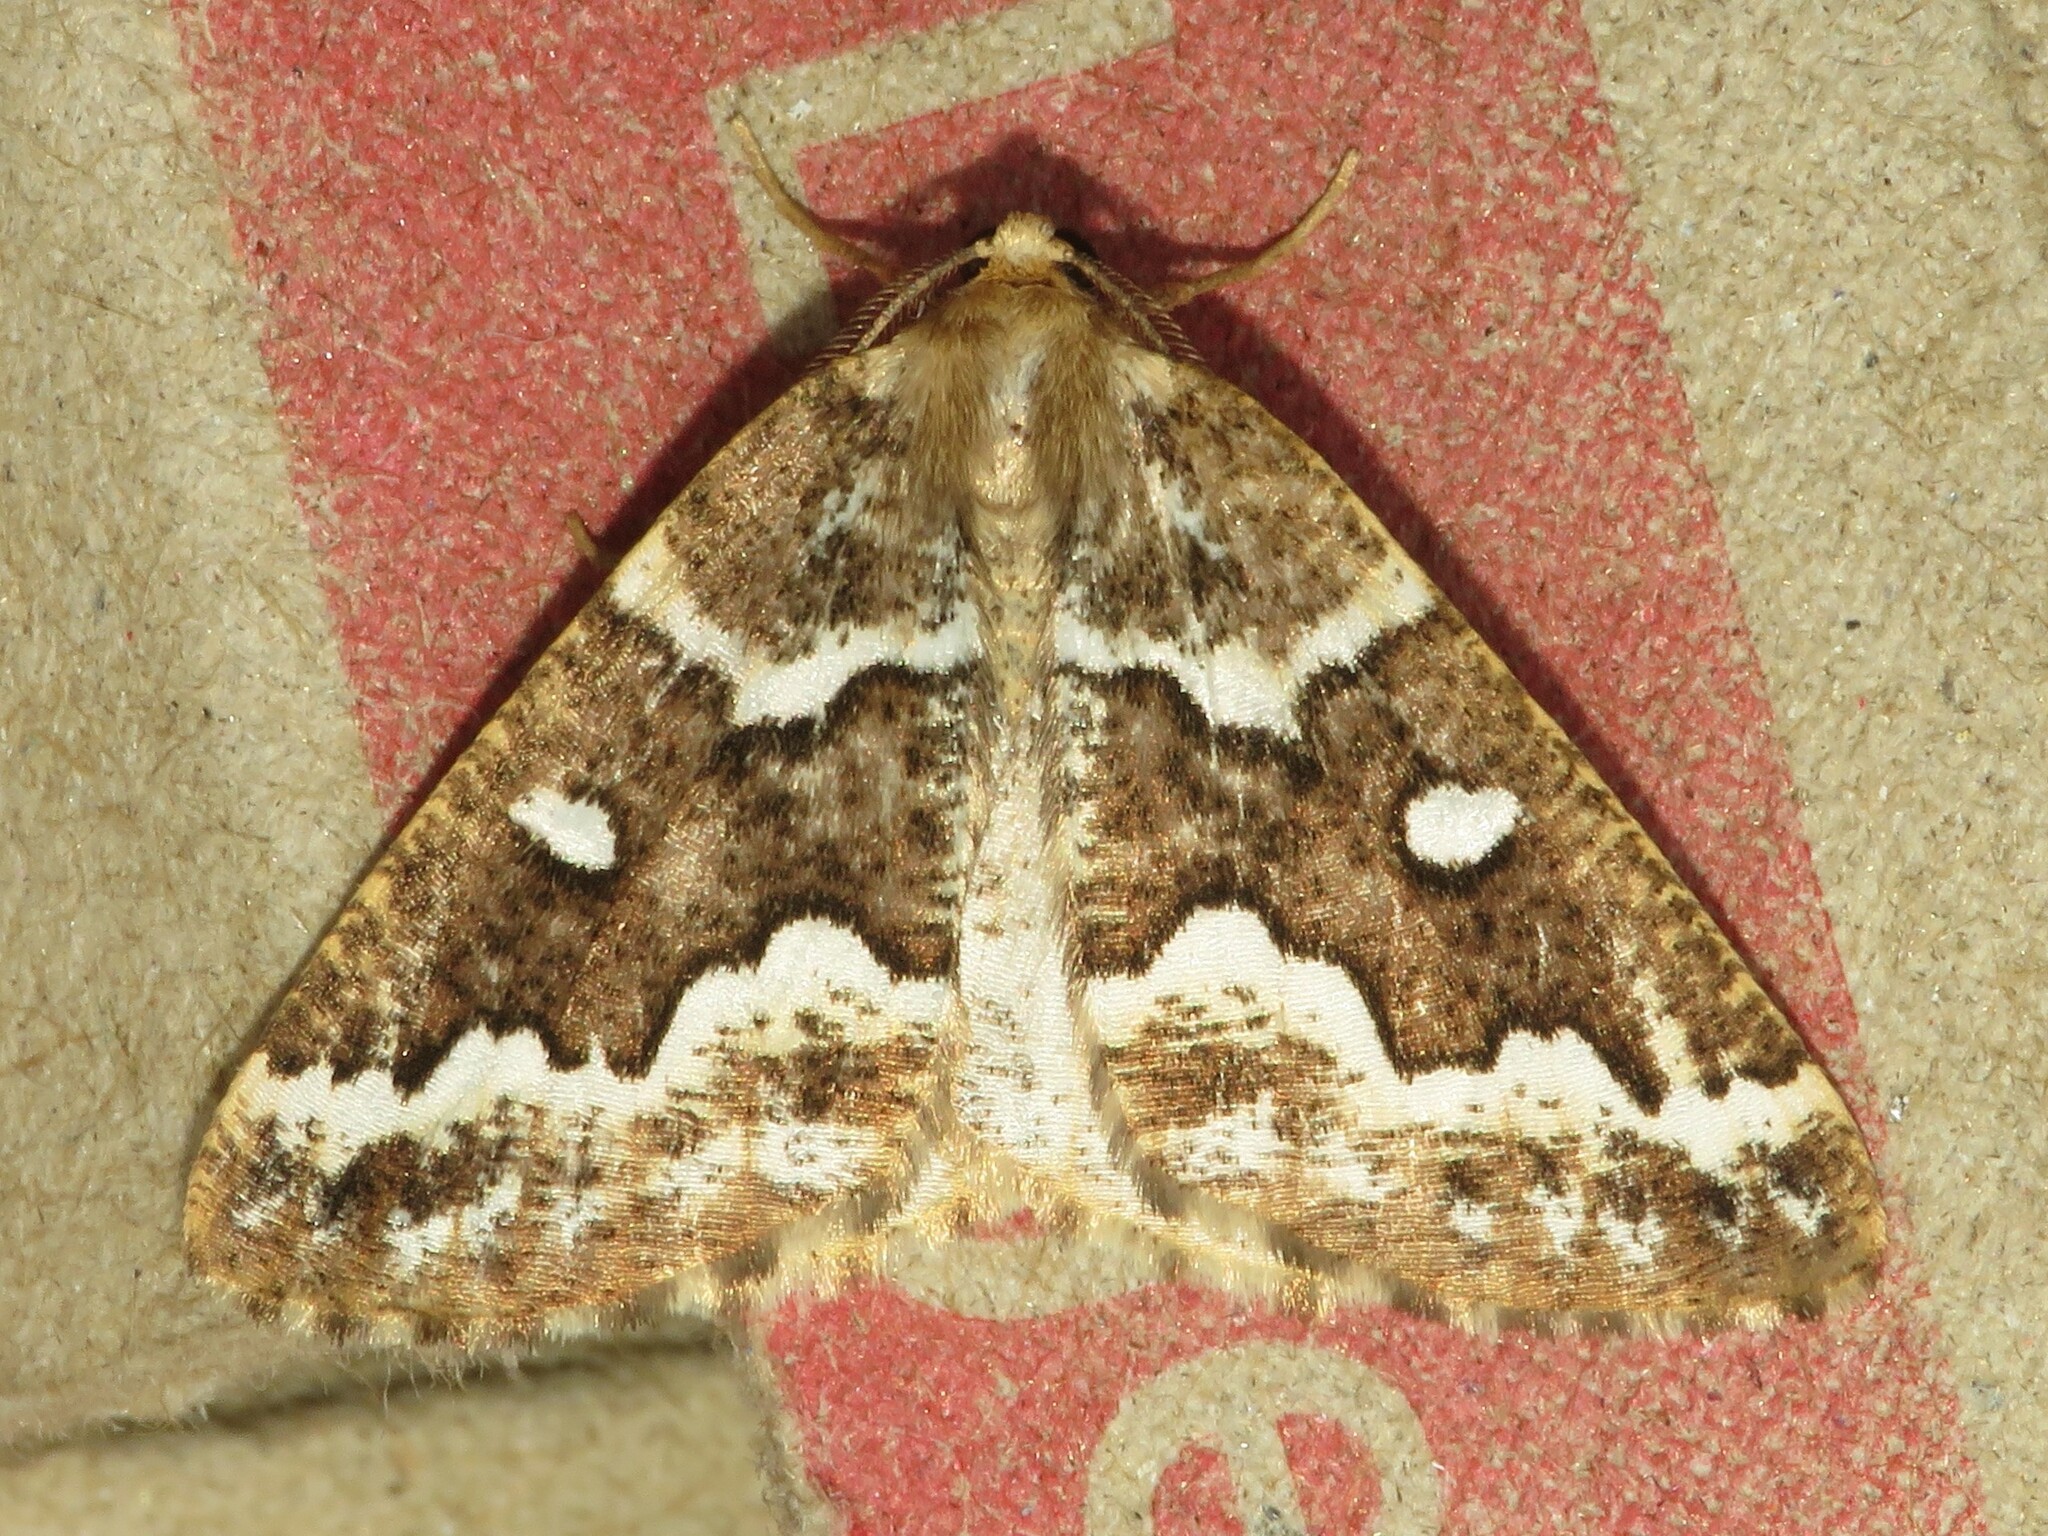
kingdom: Animalia
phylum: Arthropoda
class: Insecta
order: Lepidoptera
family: Geometridae
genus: Caripeta
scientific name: Caripeta divisata
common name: Gray spruce looper
